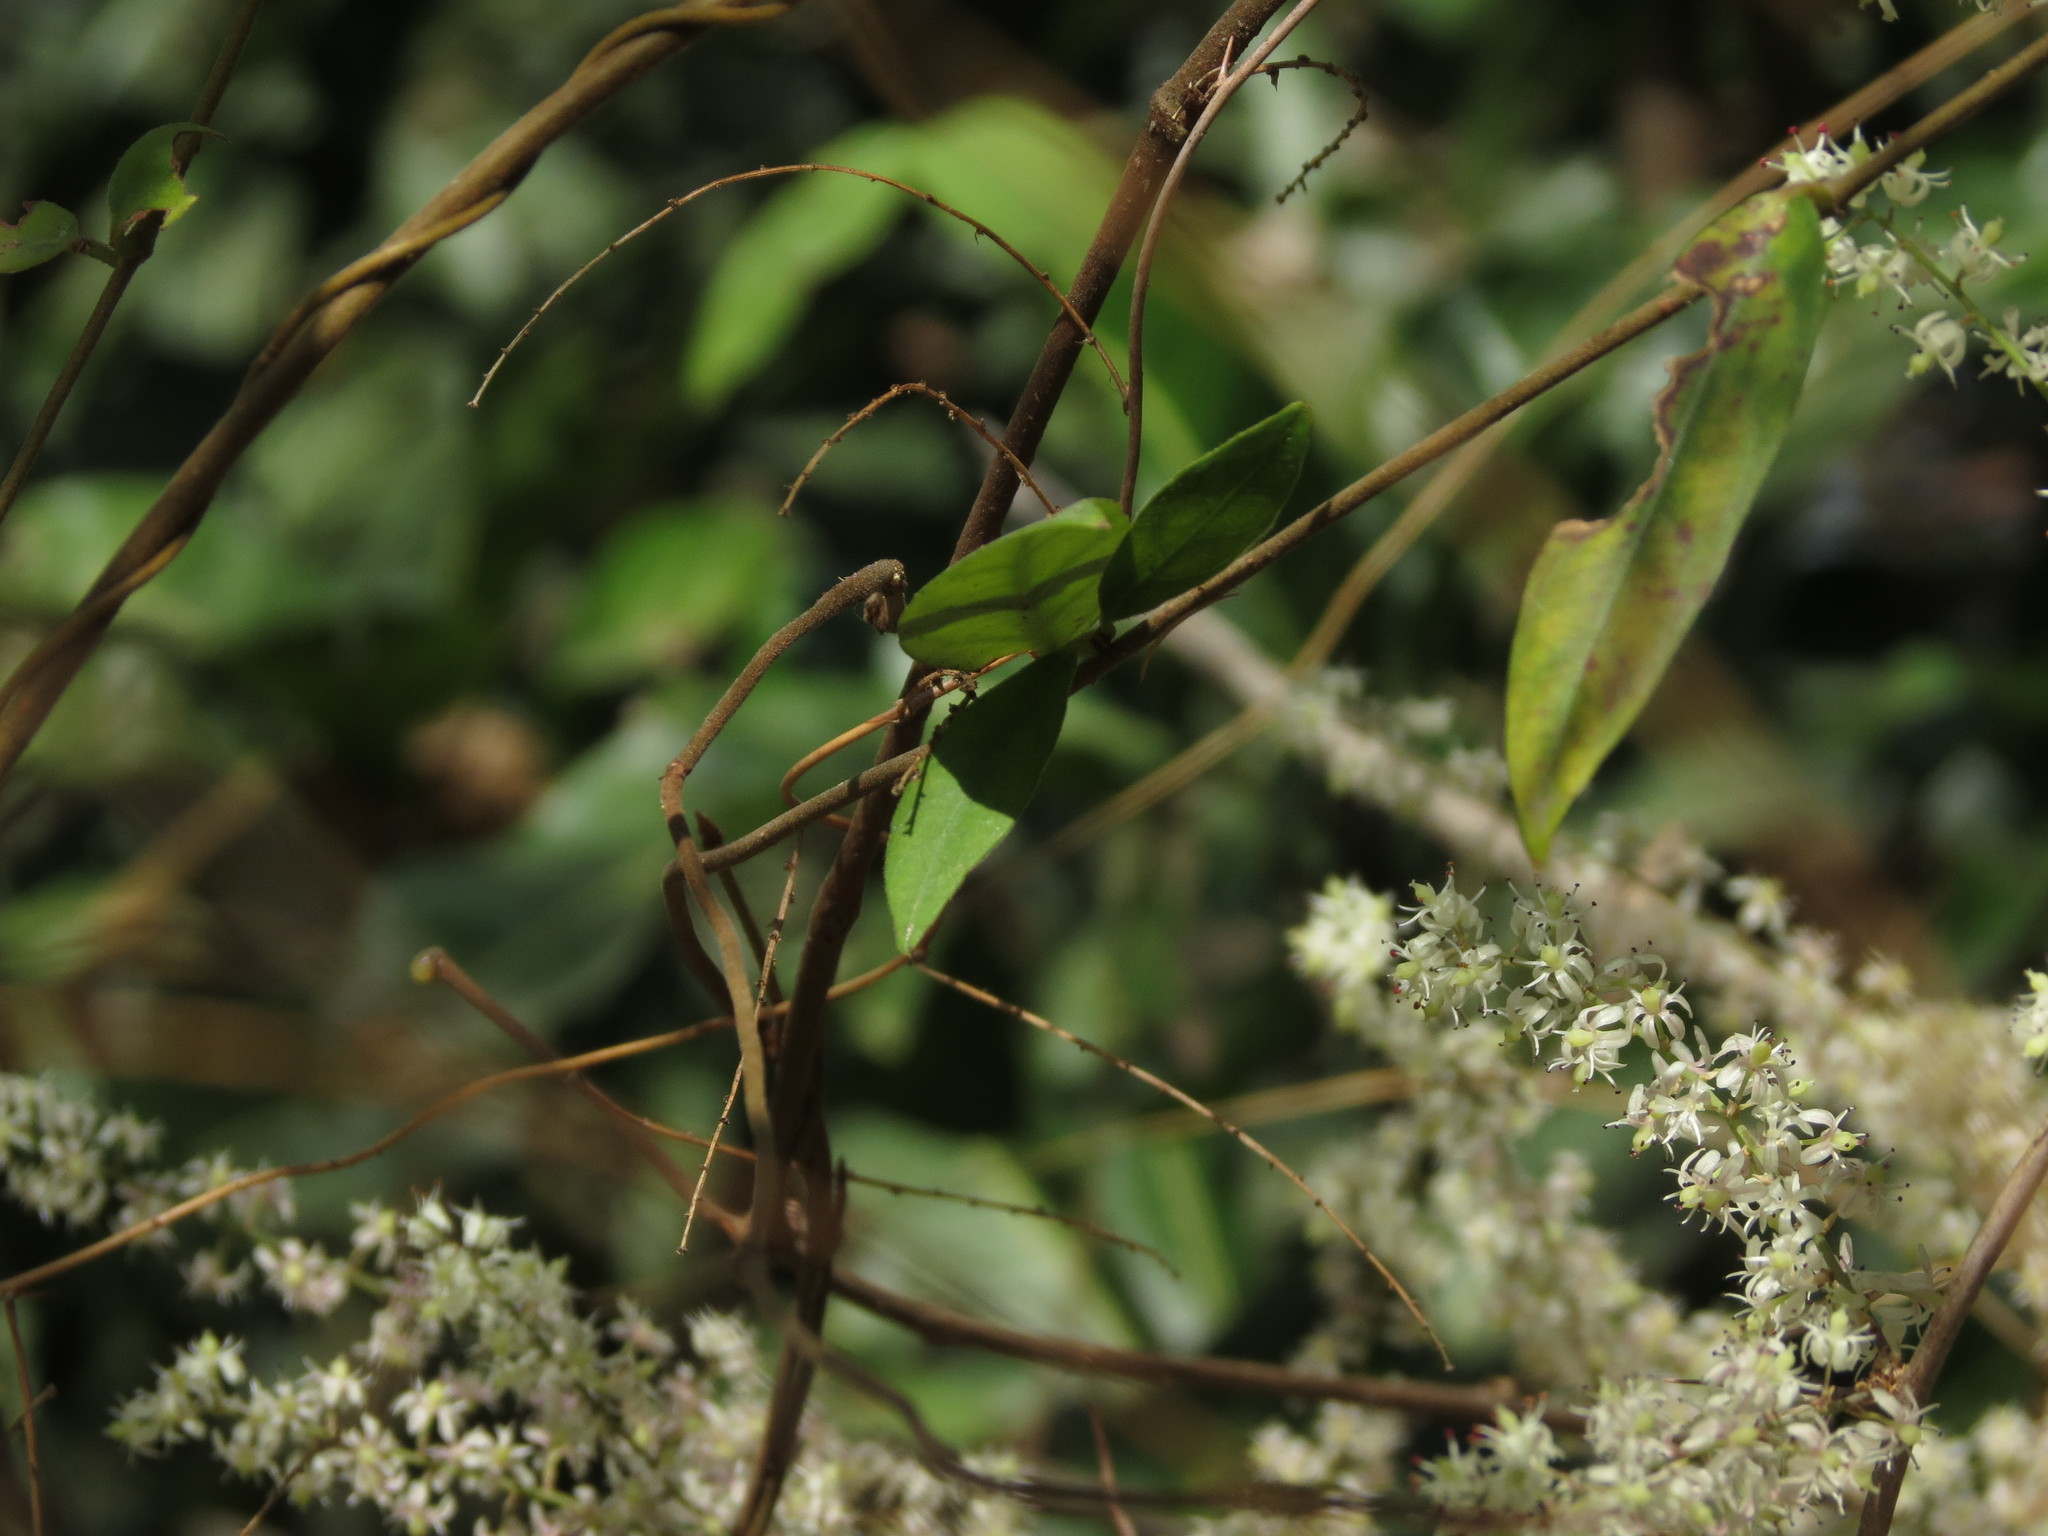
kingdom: Plantae
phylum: Tracheophyta
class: Liliopsida
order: Asparagales
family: Asparagaceae
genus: Asparagus
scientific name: Asparagus racemosus
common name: Asparagus-fern
